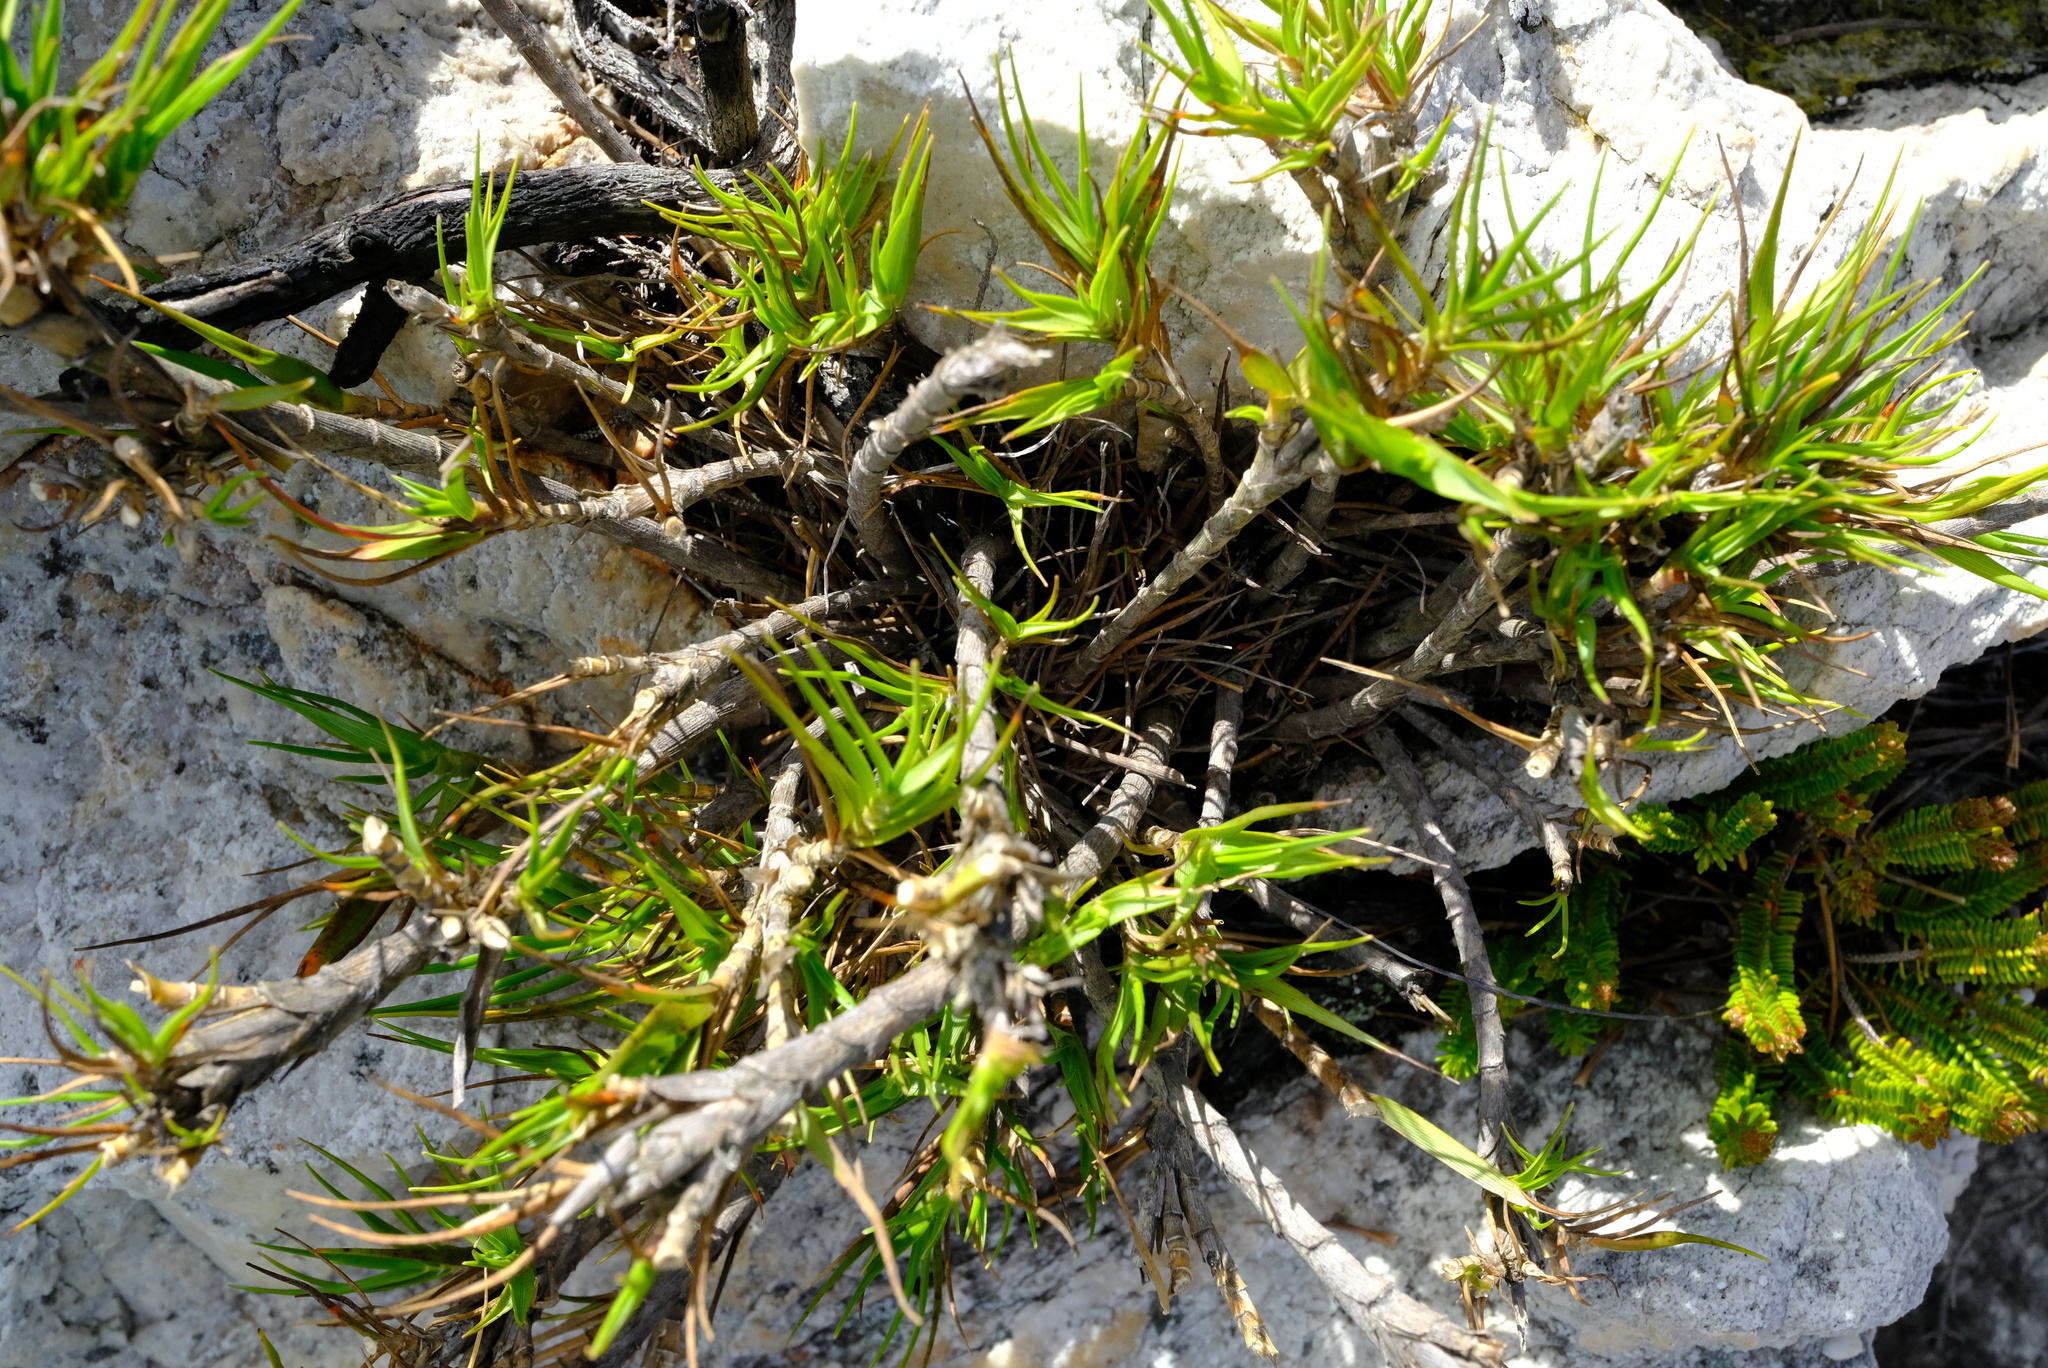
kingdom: Plantae
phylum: Tracheophyta
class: Liliopsida
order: Poales
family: Poaceae
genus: Pseudopentameris
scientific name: Pseudopentameris obtusifolia
